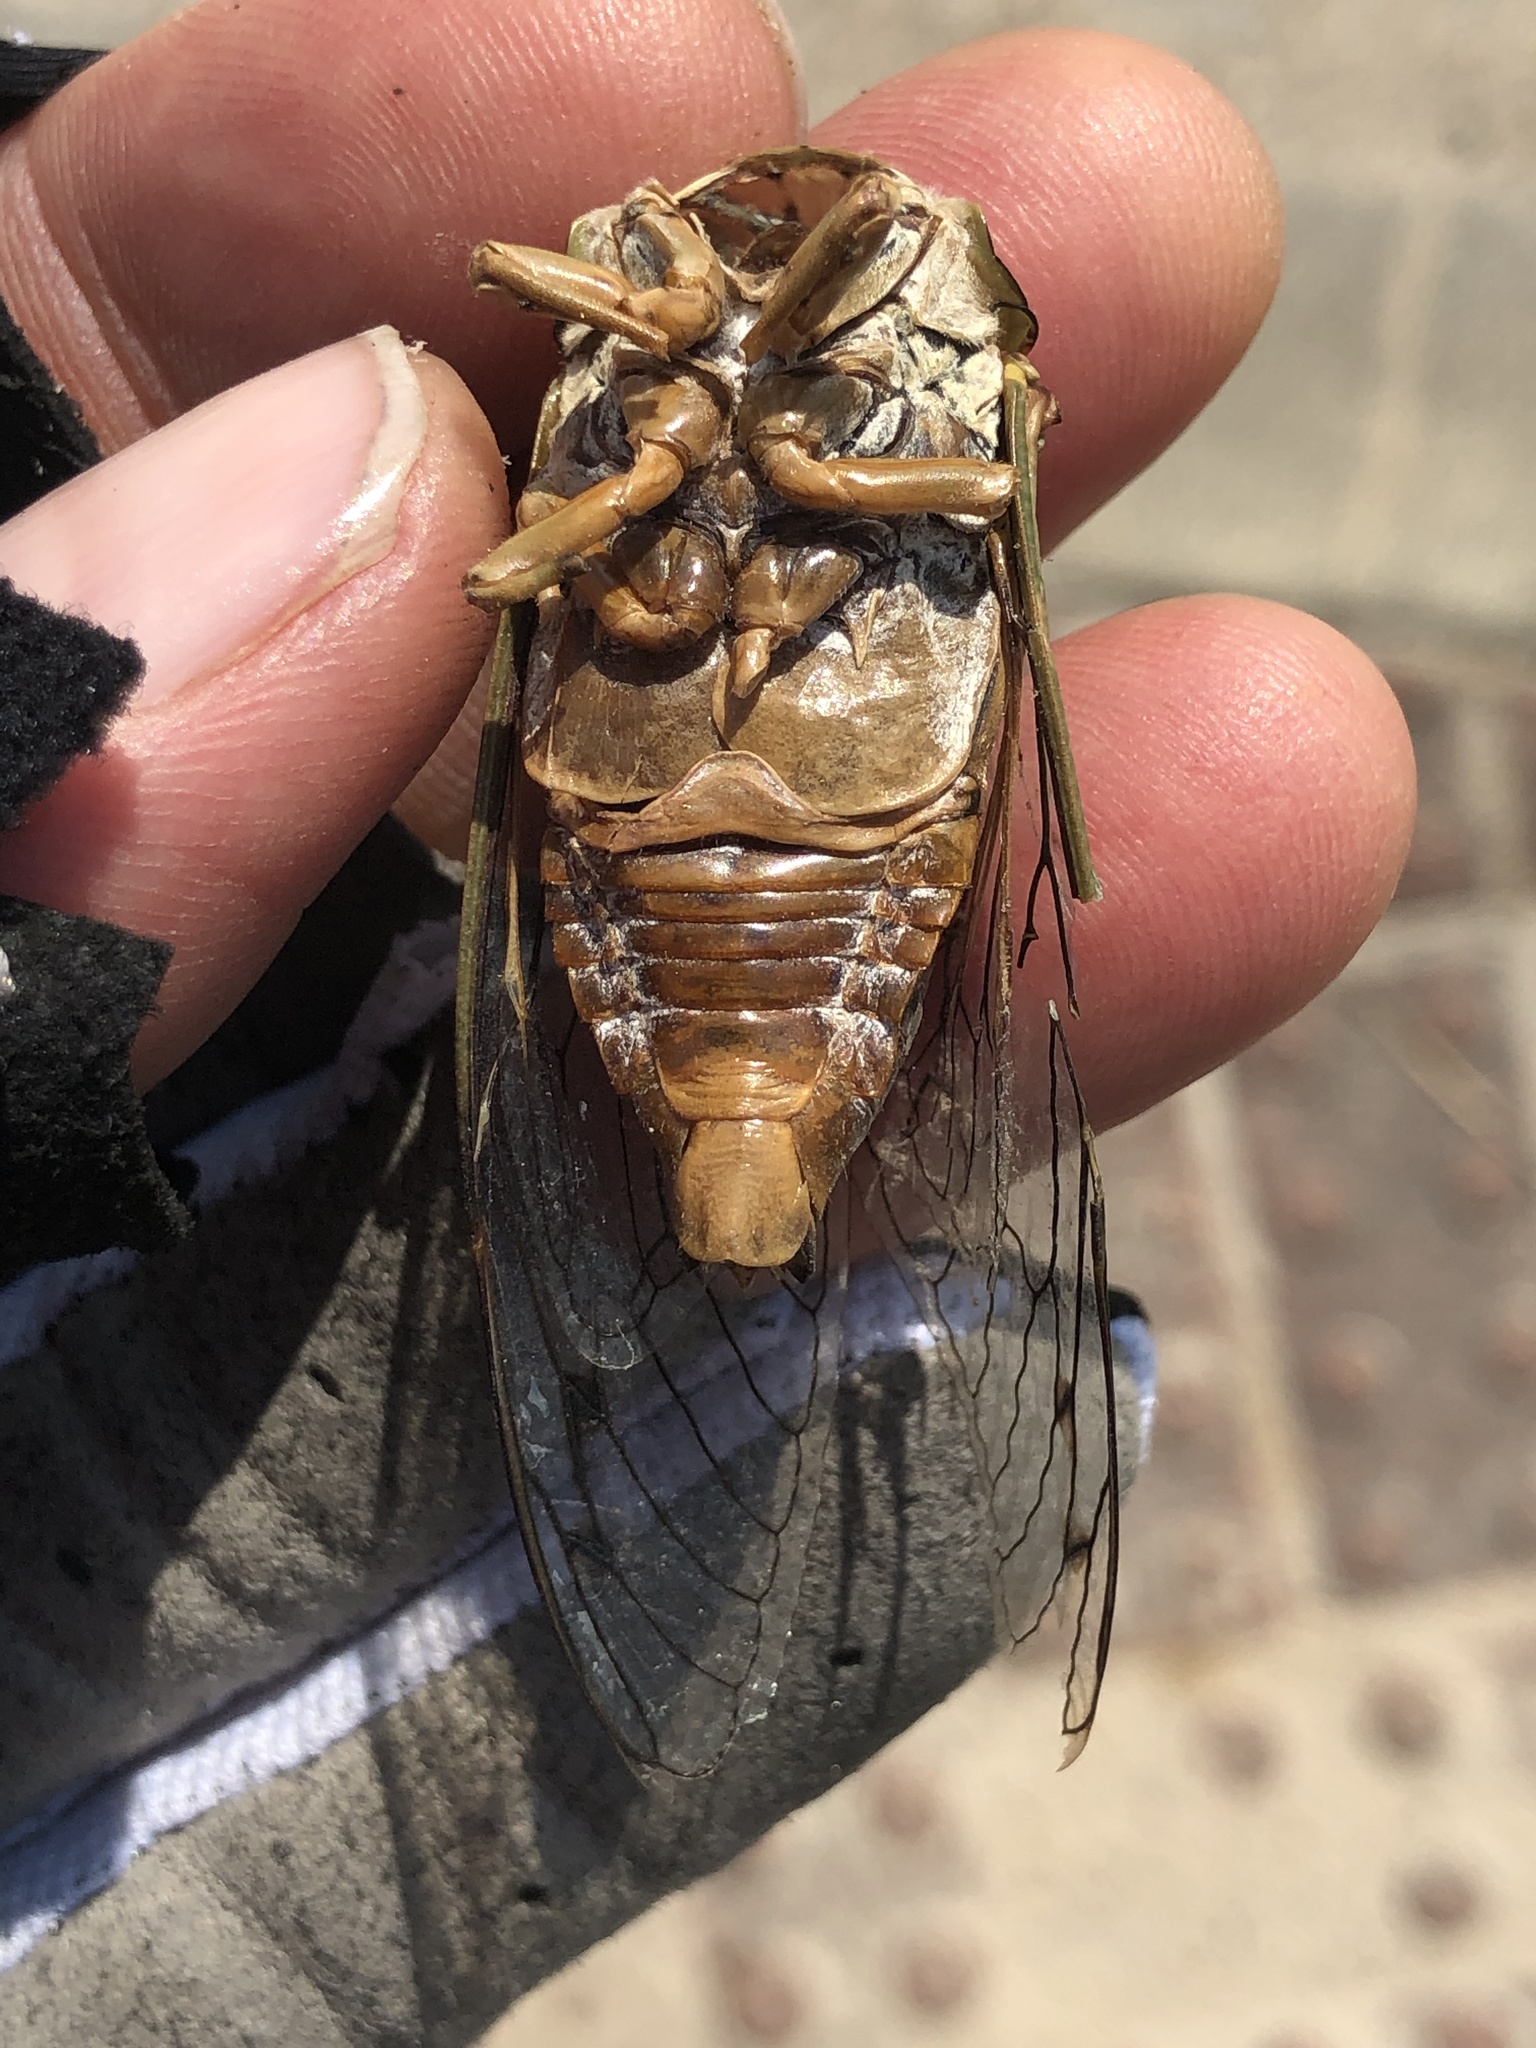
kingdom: Animalia
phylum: Arthropoda
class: Insecta
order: Hemiptera
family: Cicadidae
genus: Megatibicen
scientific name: Megatibicen resh
